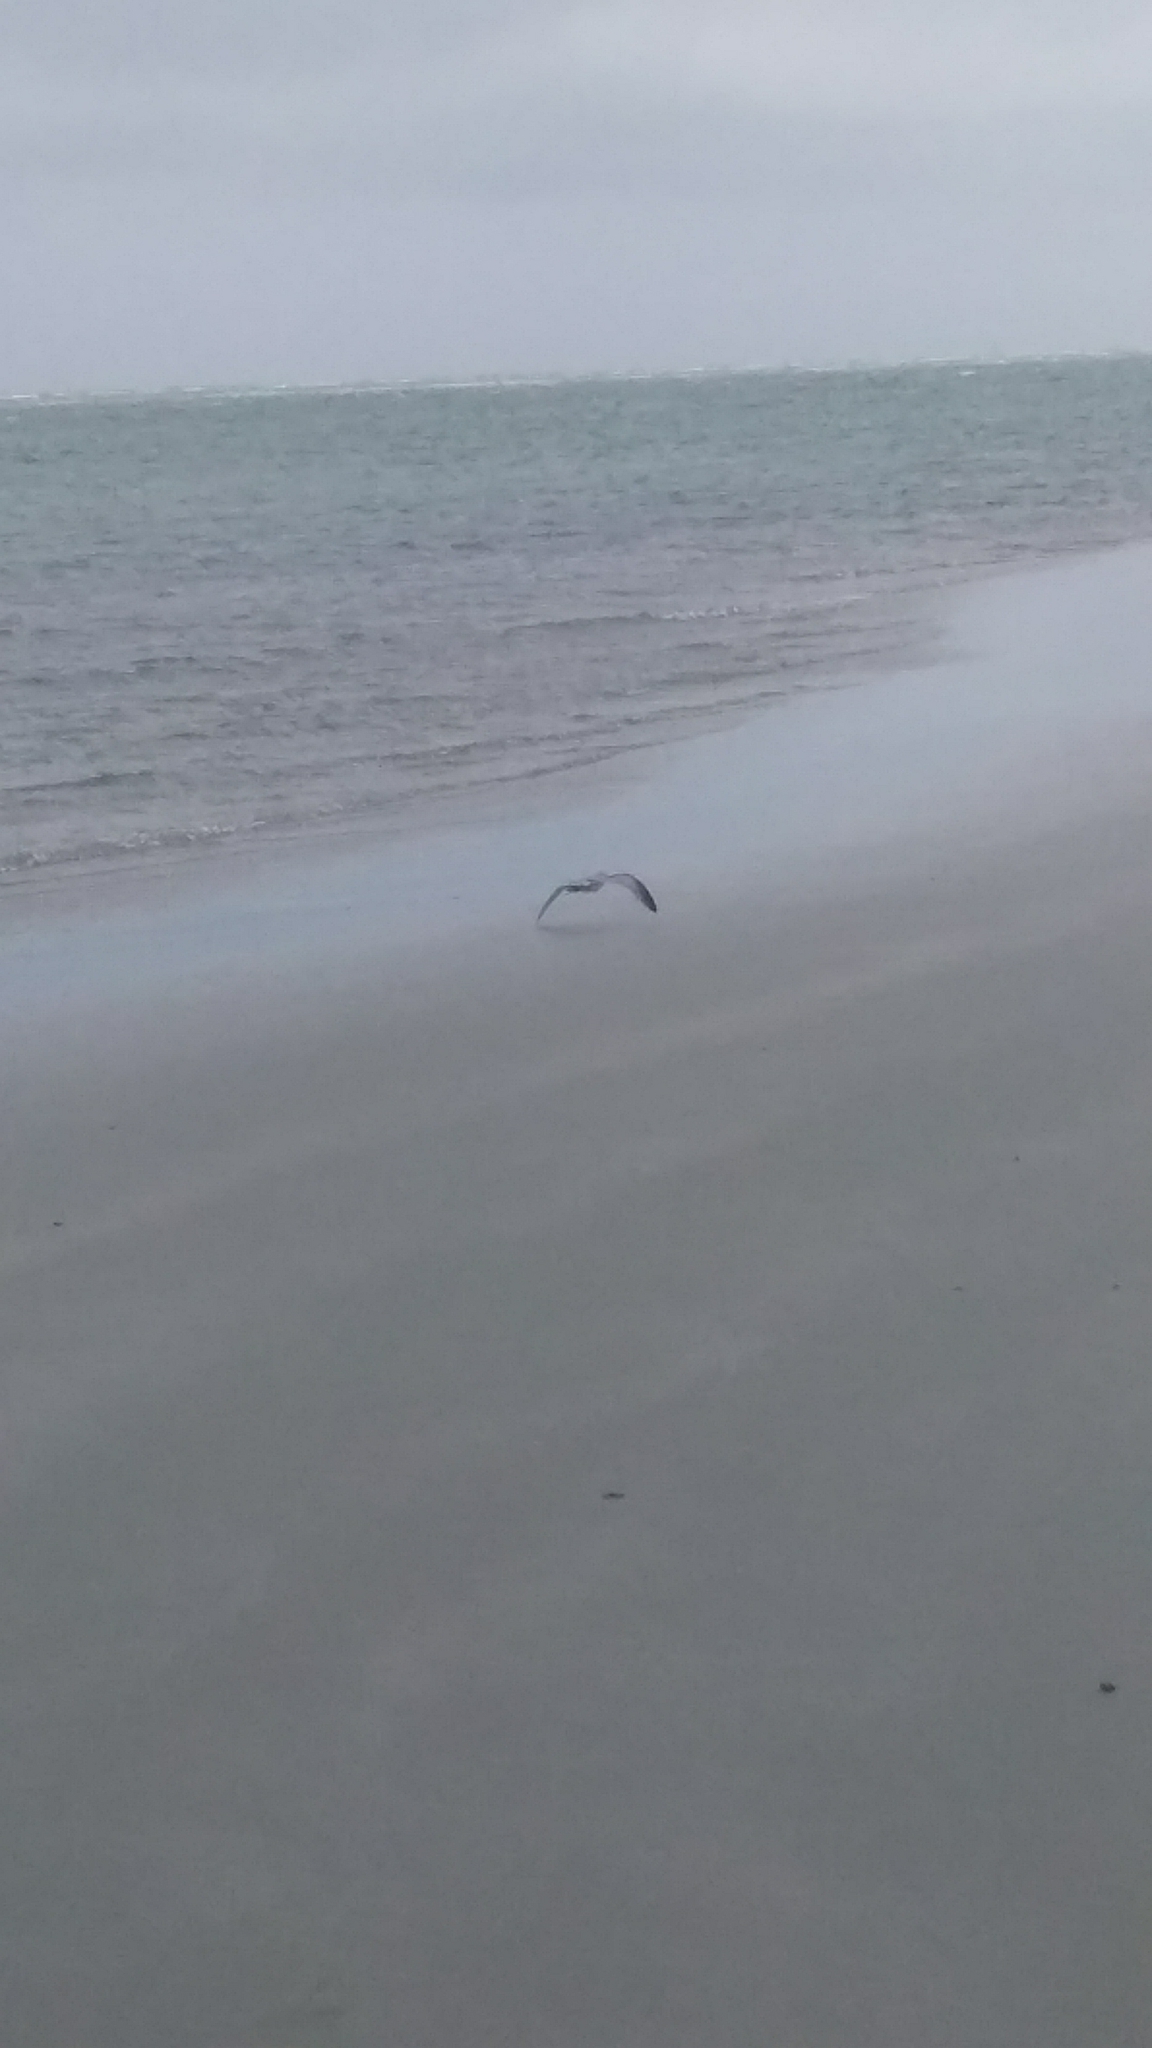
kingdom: Animalia
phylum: Chordata
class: Aves
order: Procellariiformes
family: Procellariidae
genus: Pachyptila
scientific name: Pachyptila turtur
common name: Fairy prion
